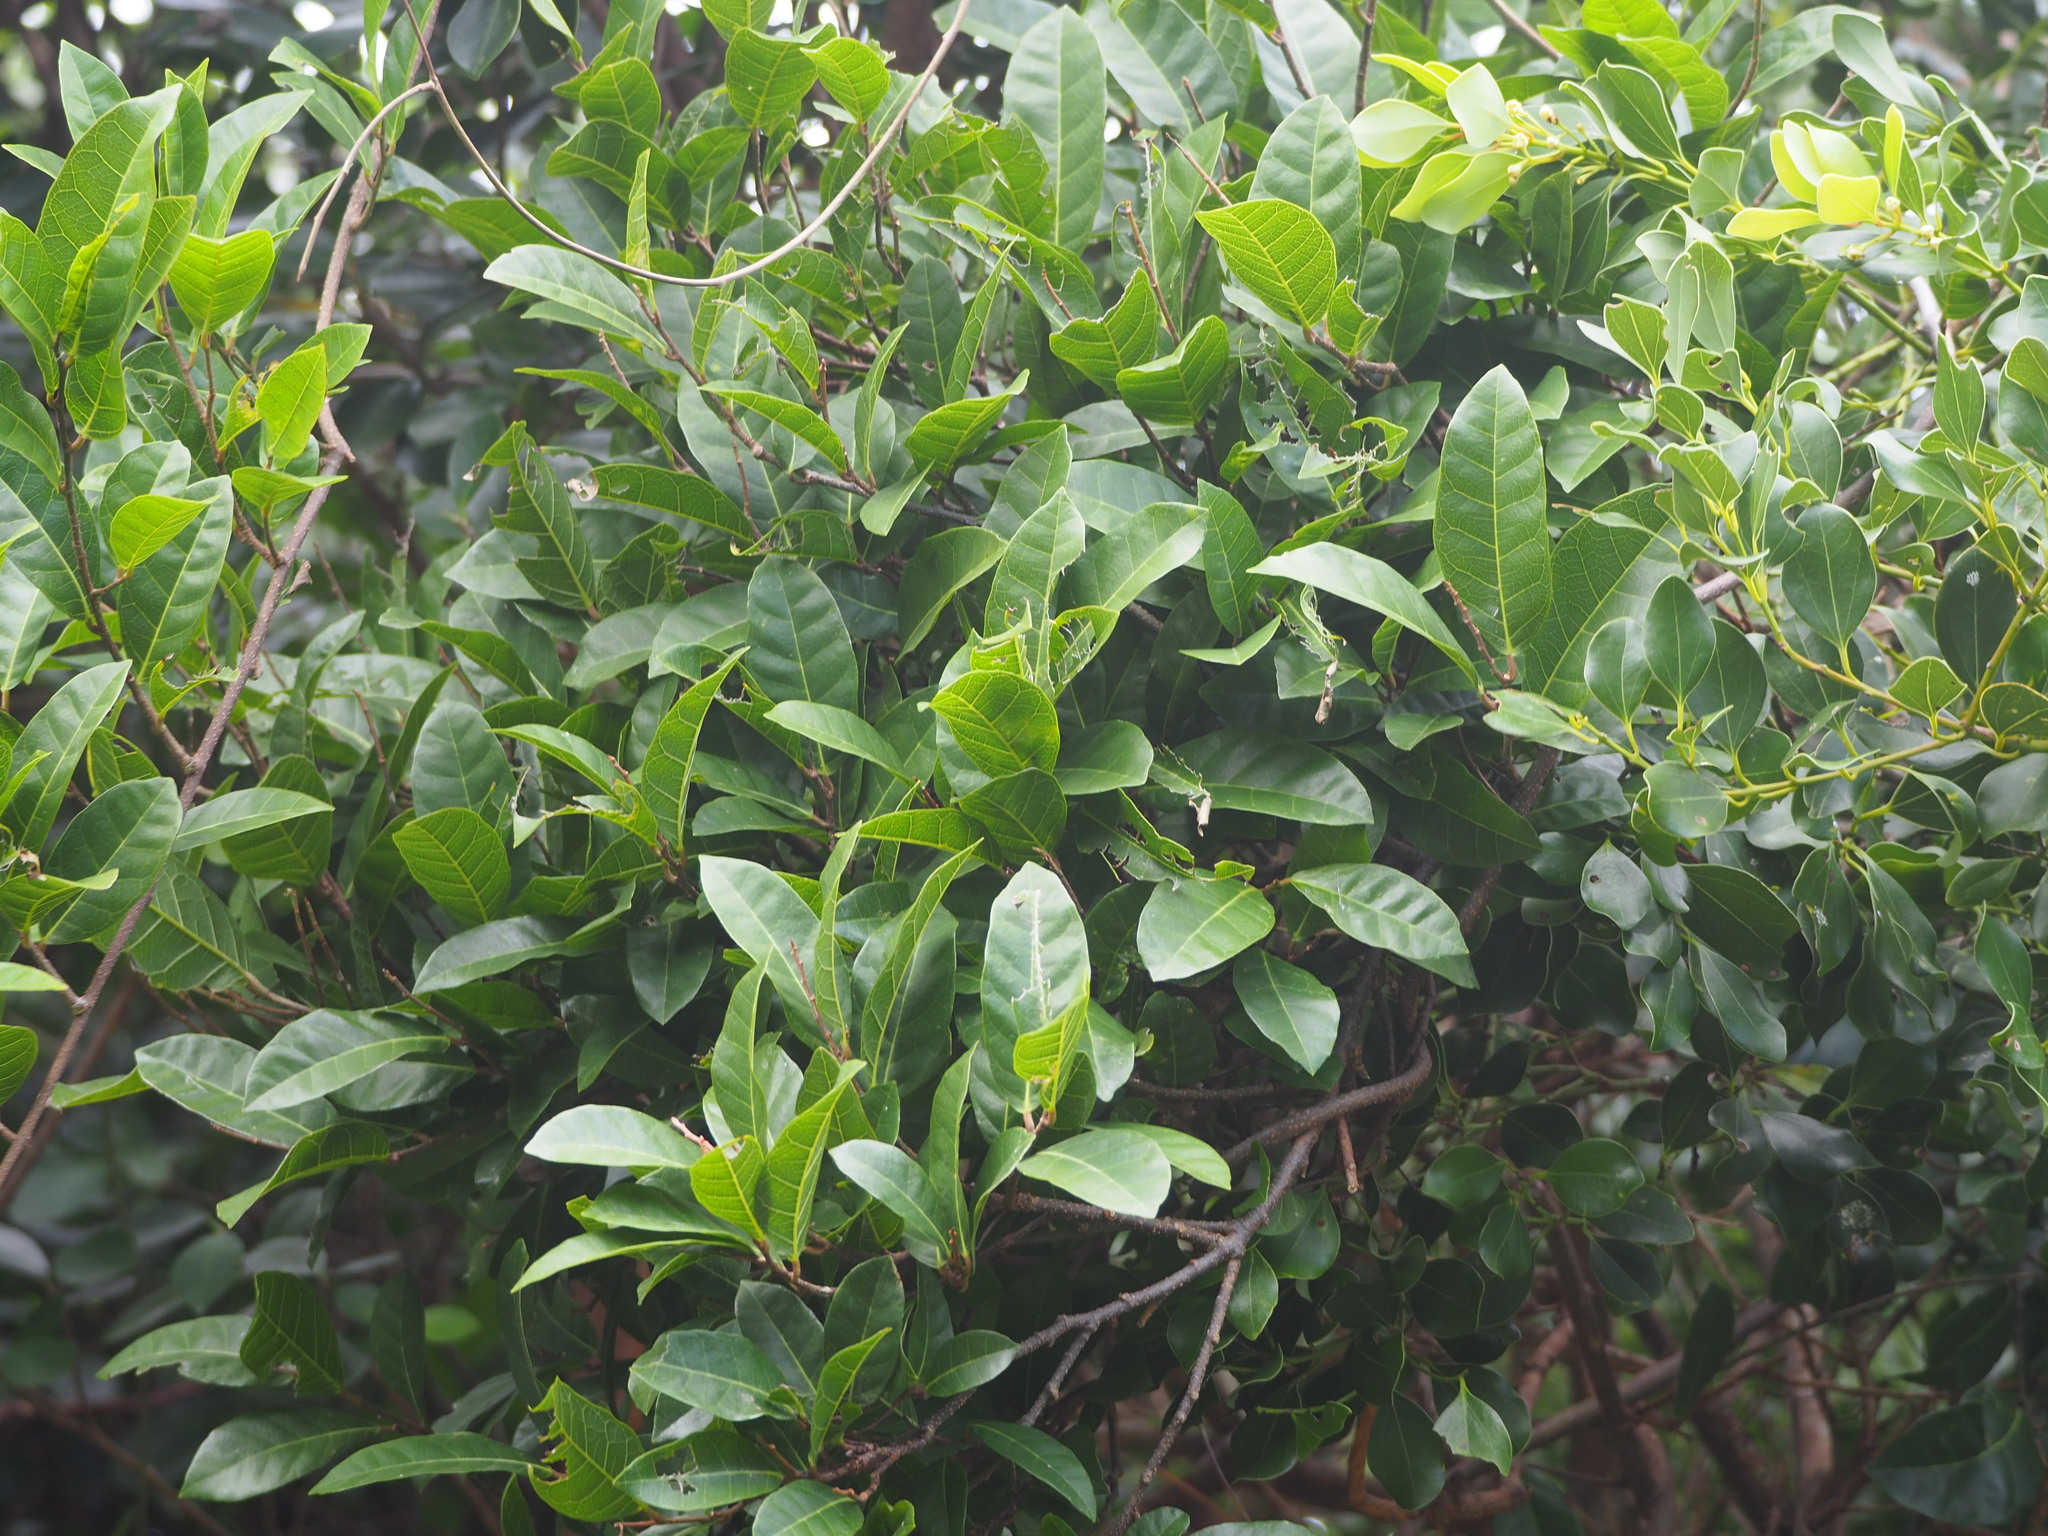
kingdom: Plantae
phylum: Tracheophyta
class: Magnoliopsida
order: Rosales
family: Moraceae
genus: Malaisia
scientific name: Malaisia scandens
